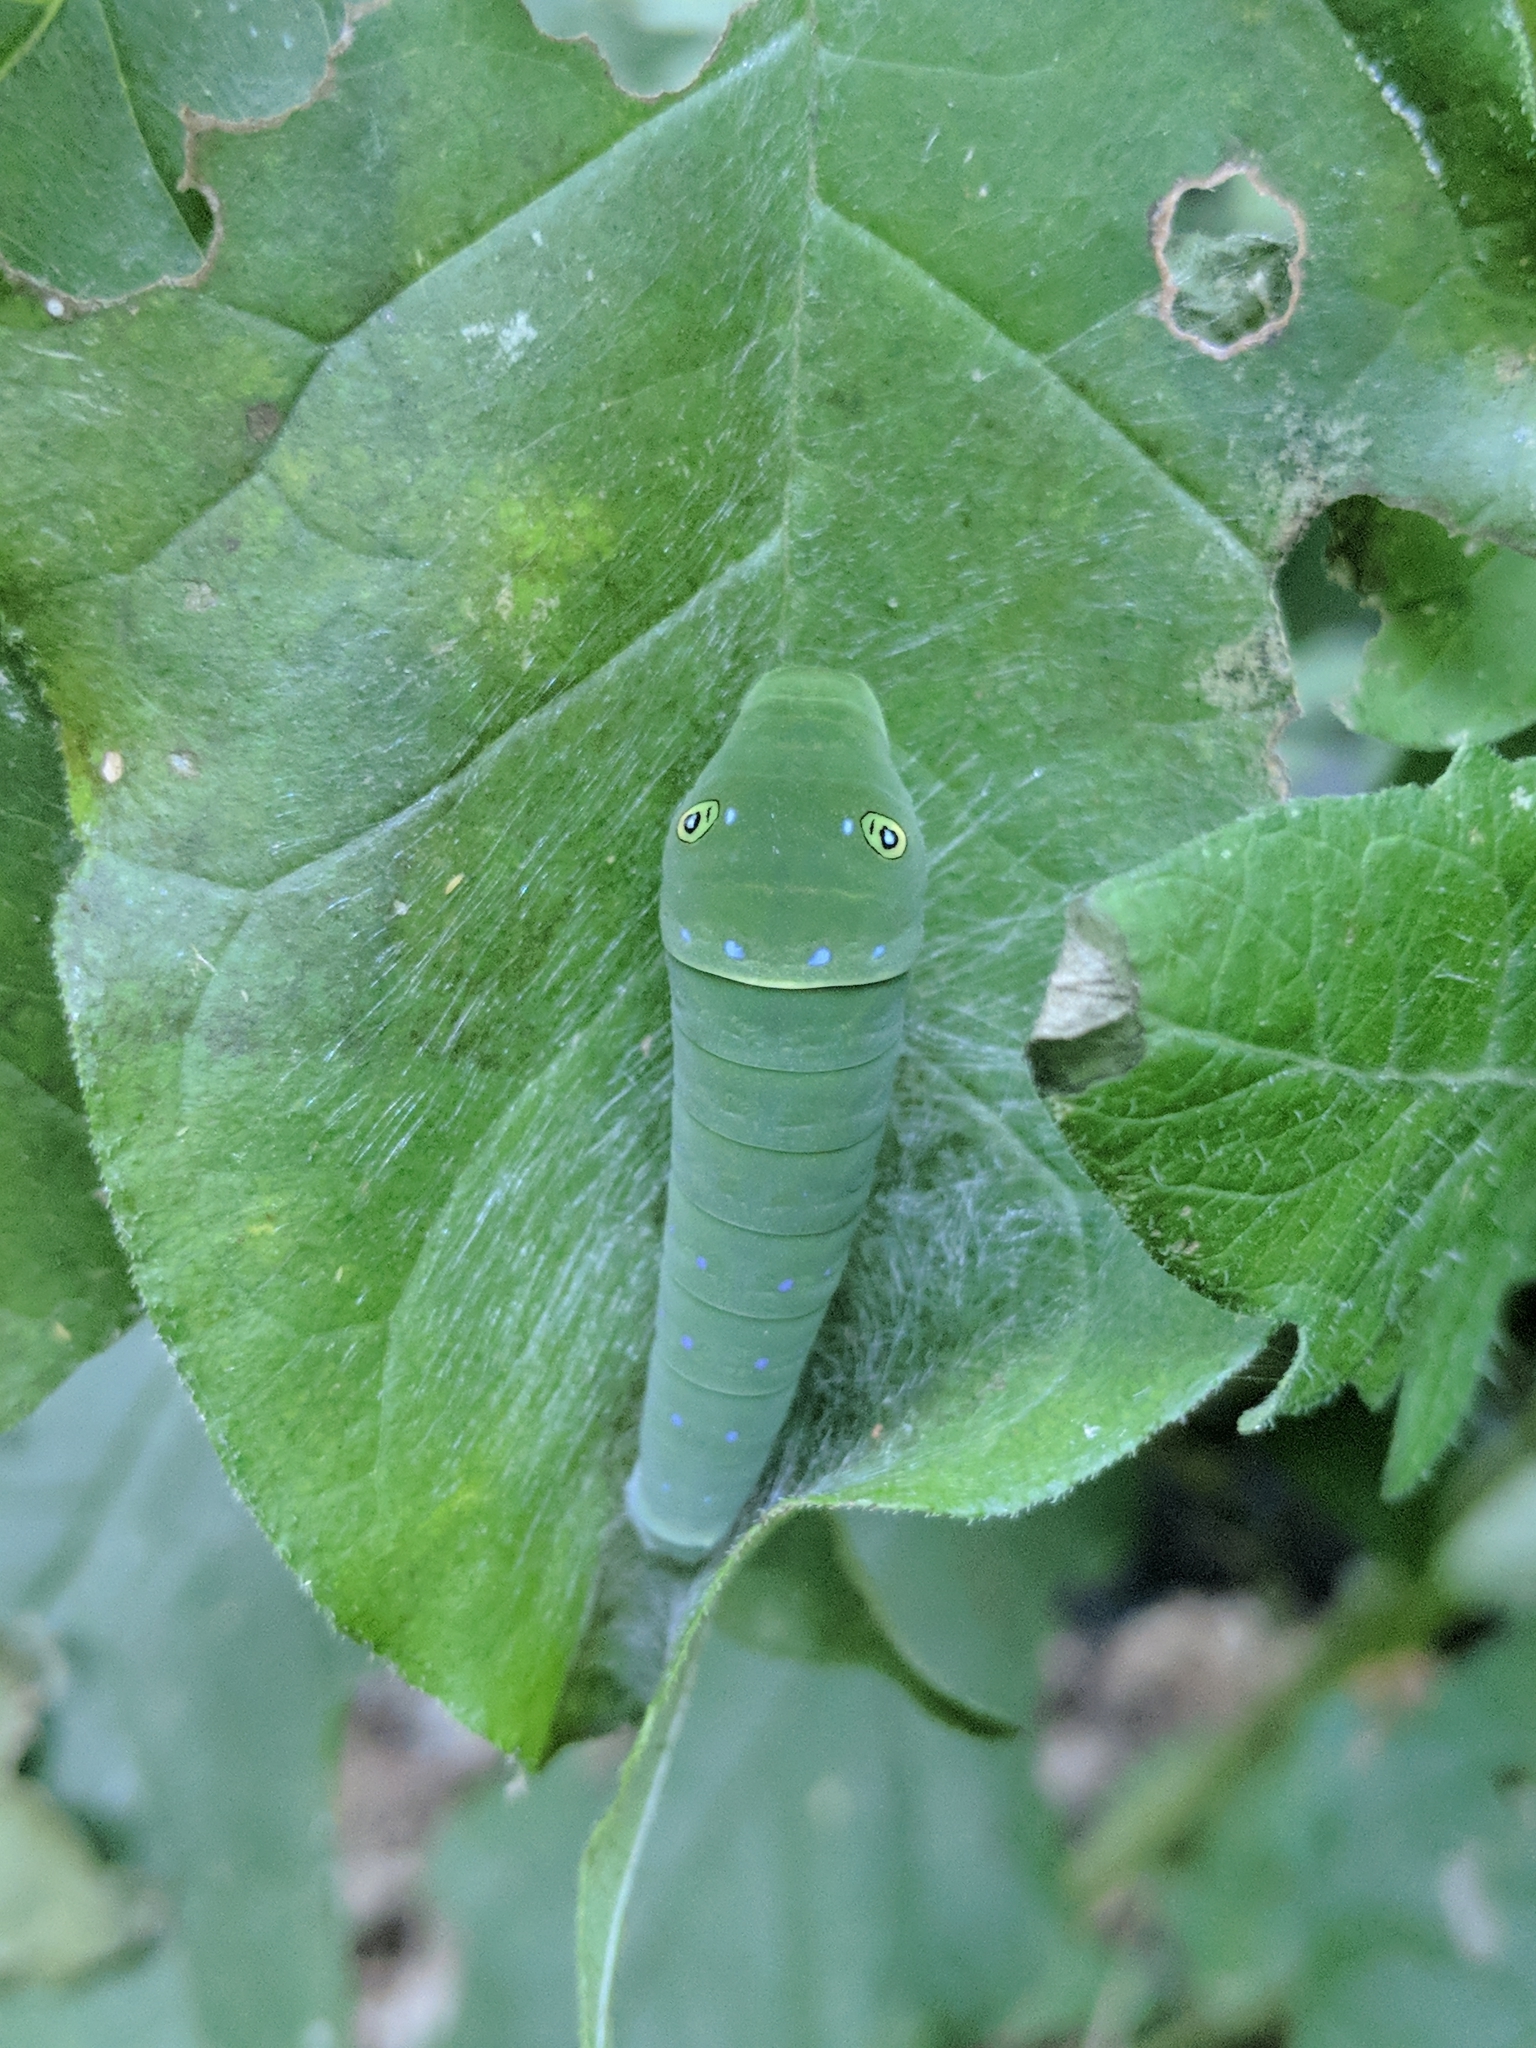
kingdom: Animalia
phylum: Arthropoda
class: Insecta
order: Lepidoptera
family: Papilionidae
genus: Papilio
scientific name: Papilio glaucus
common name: Tiger swallowtail
